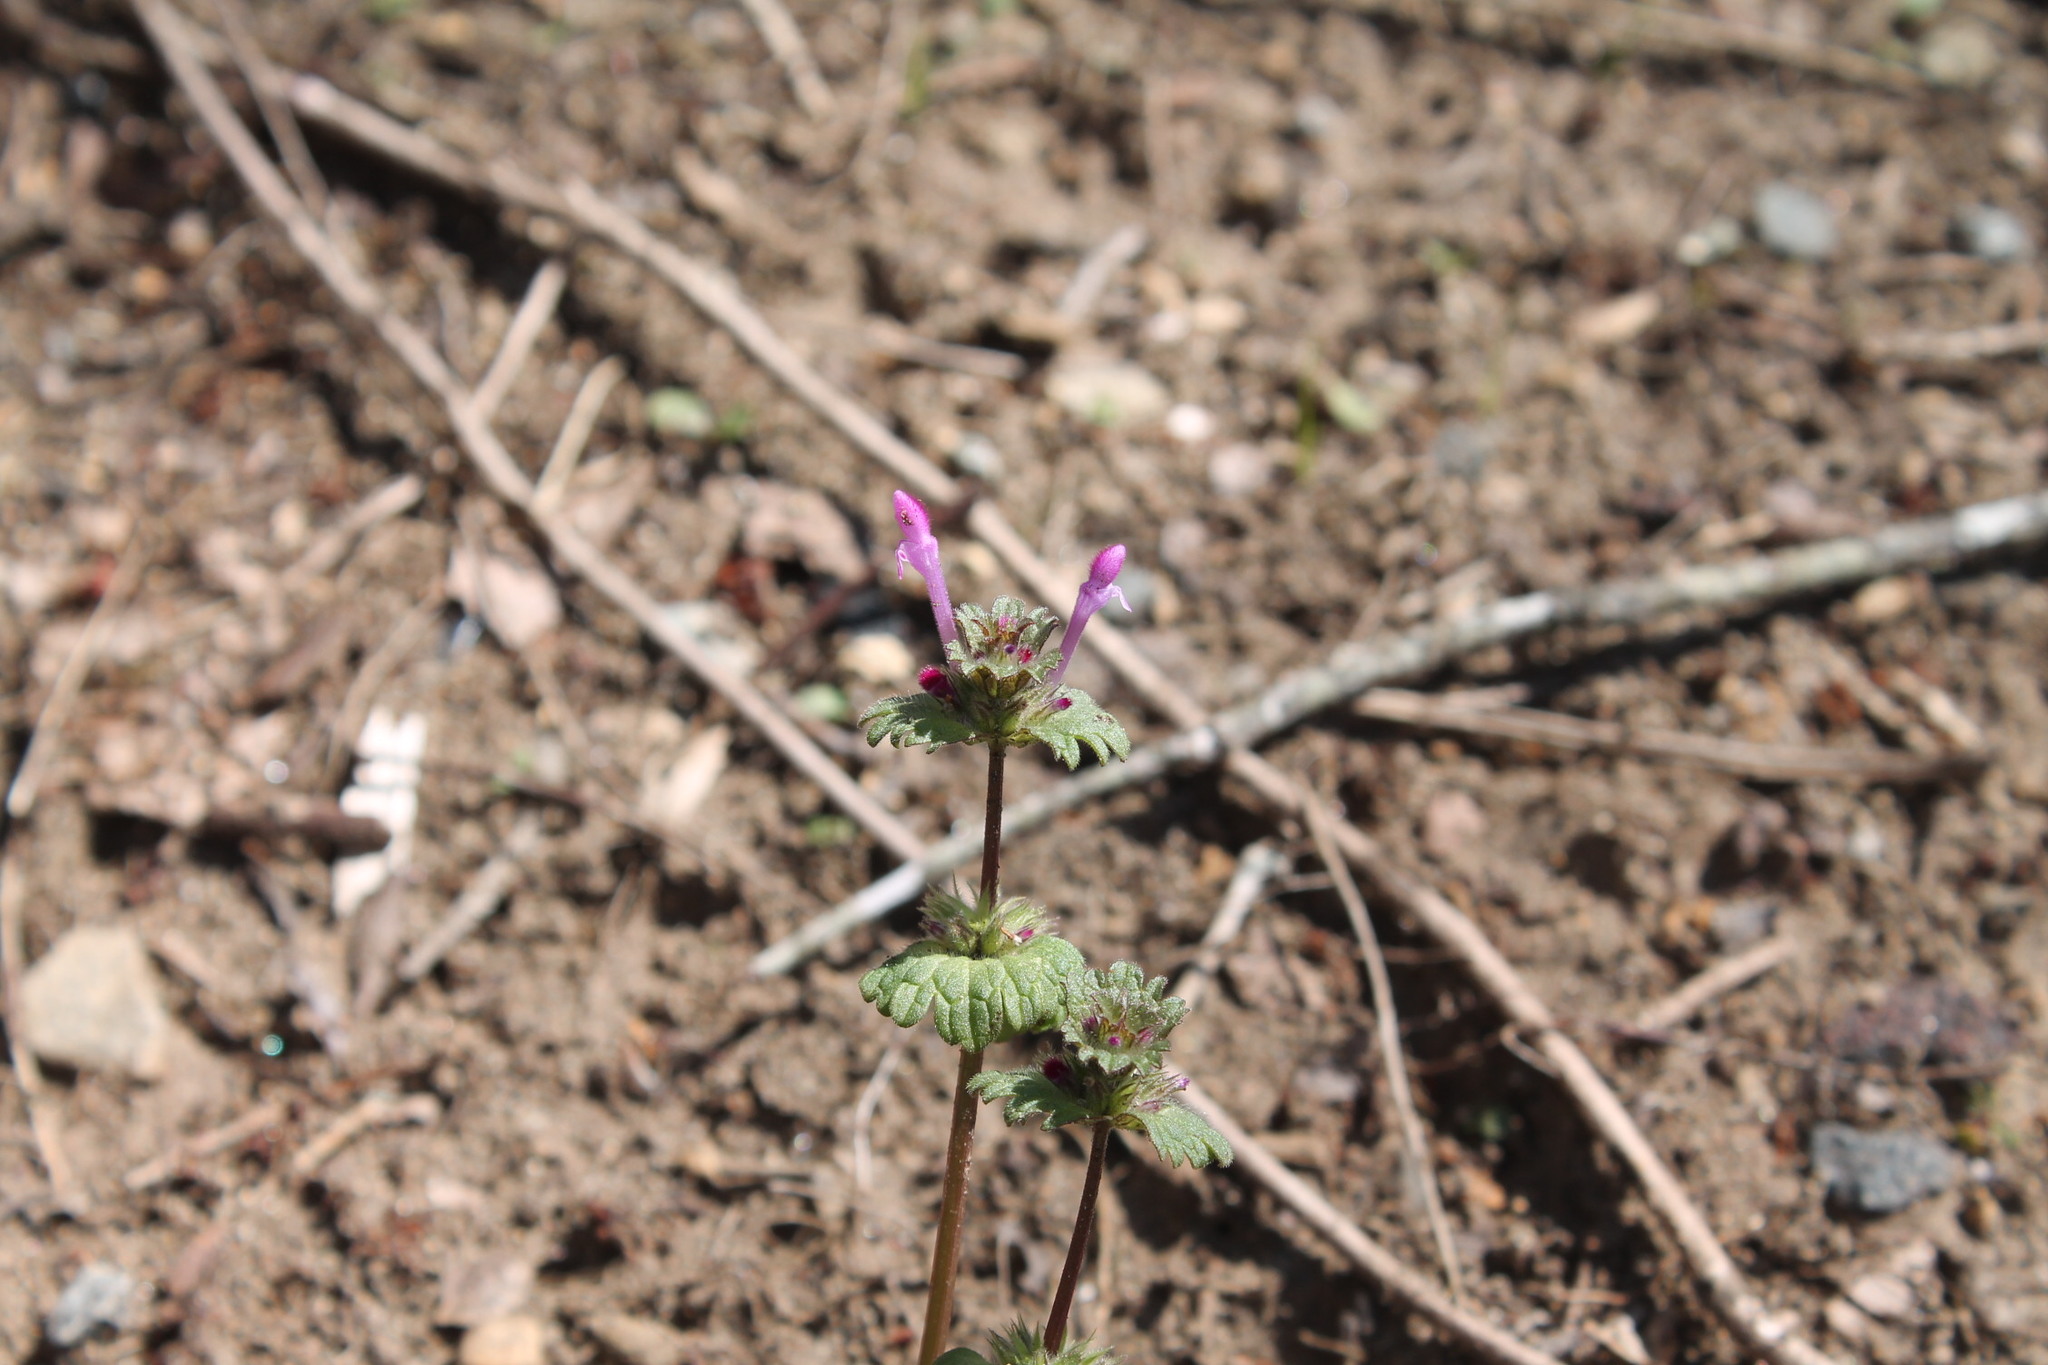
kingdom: Plantae
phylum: Tracheophyta
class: Magnoliopsida
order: Lamiales
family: Lamiaceae
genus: Lamium
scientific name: Lamium amplexicaule
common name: Henbit dead-nettle
